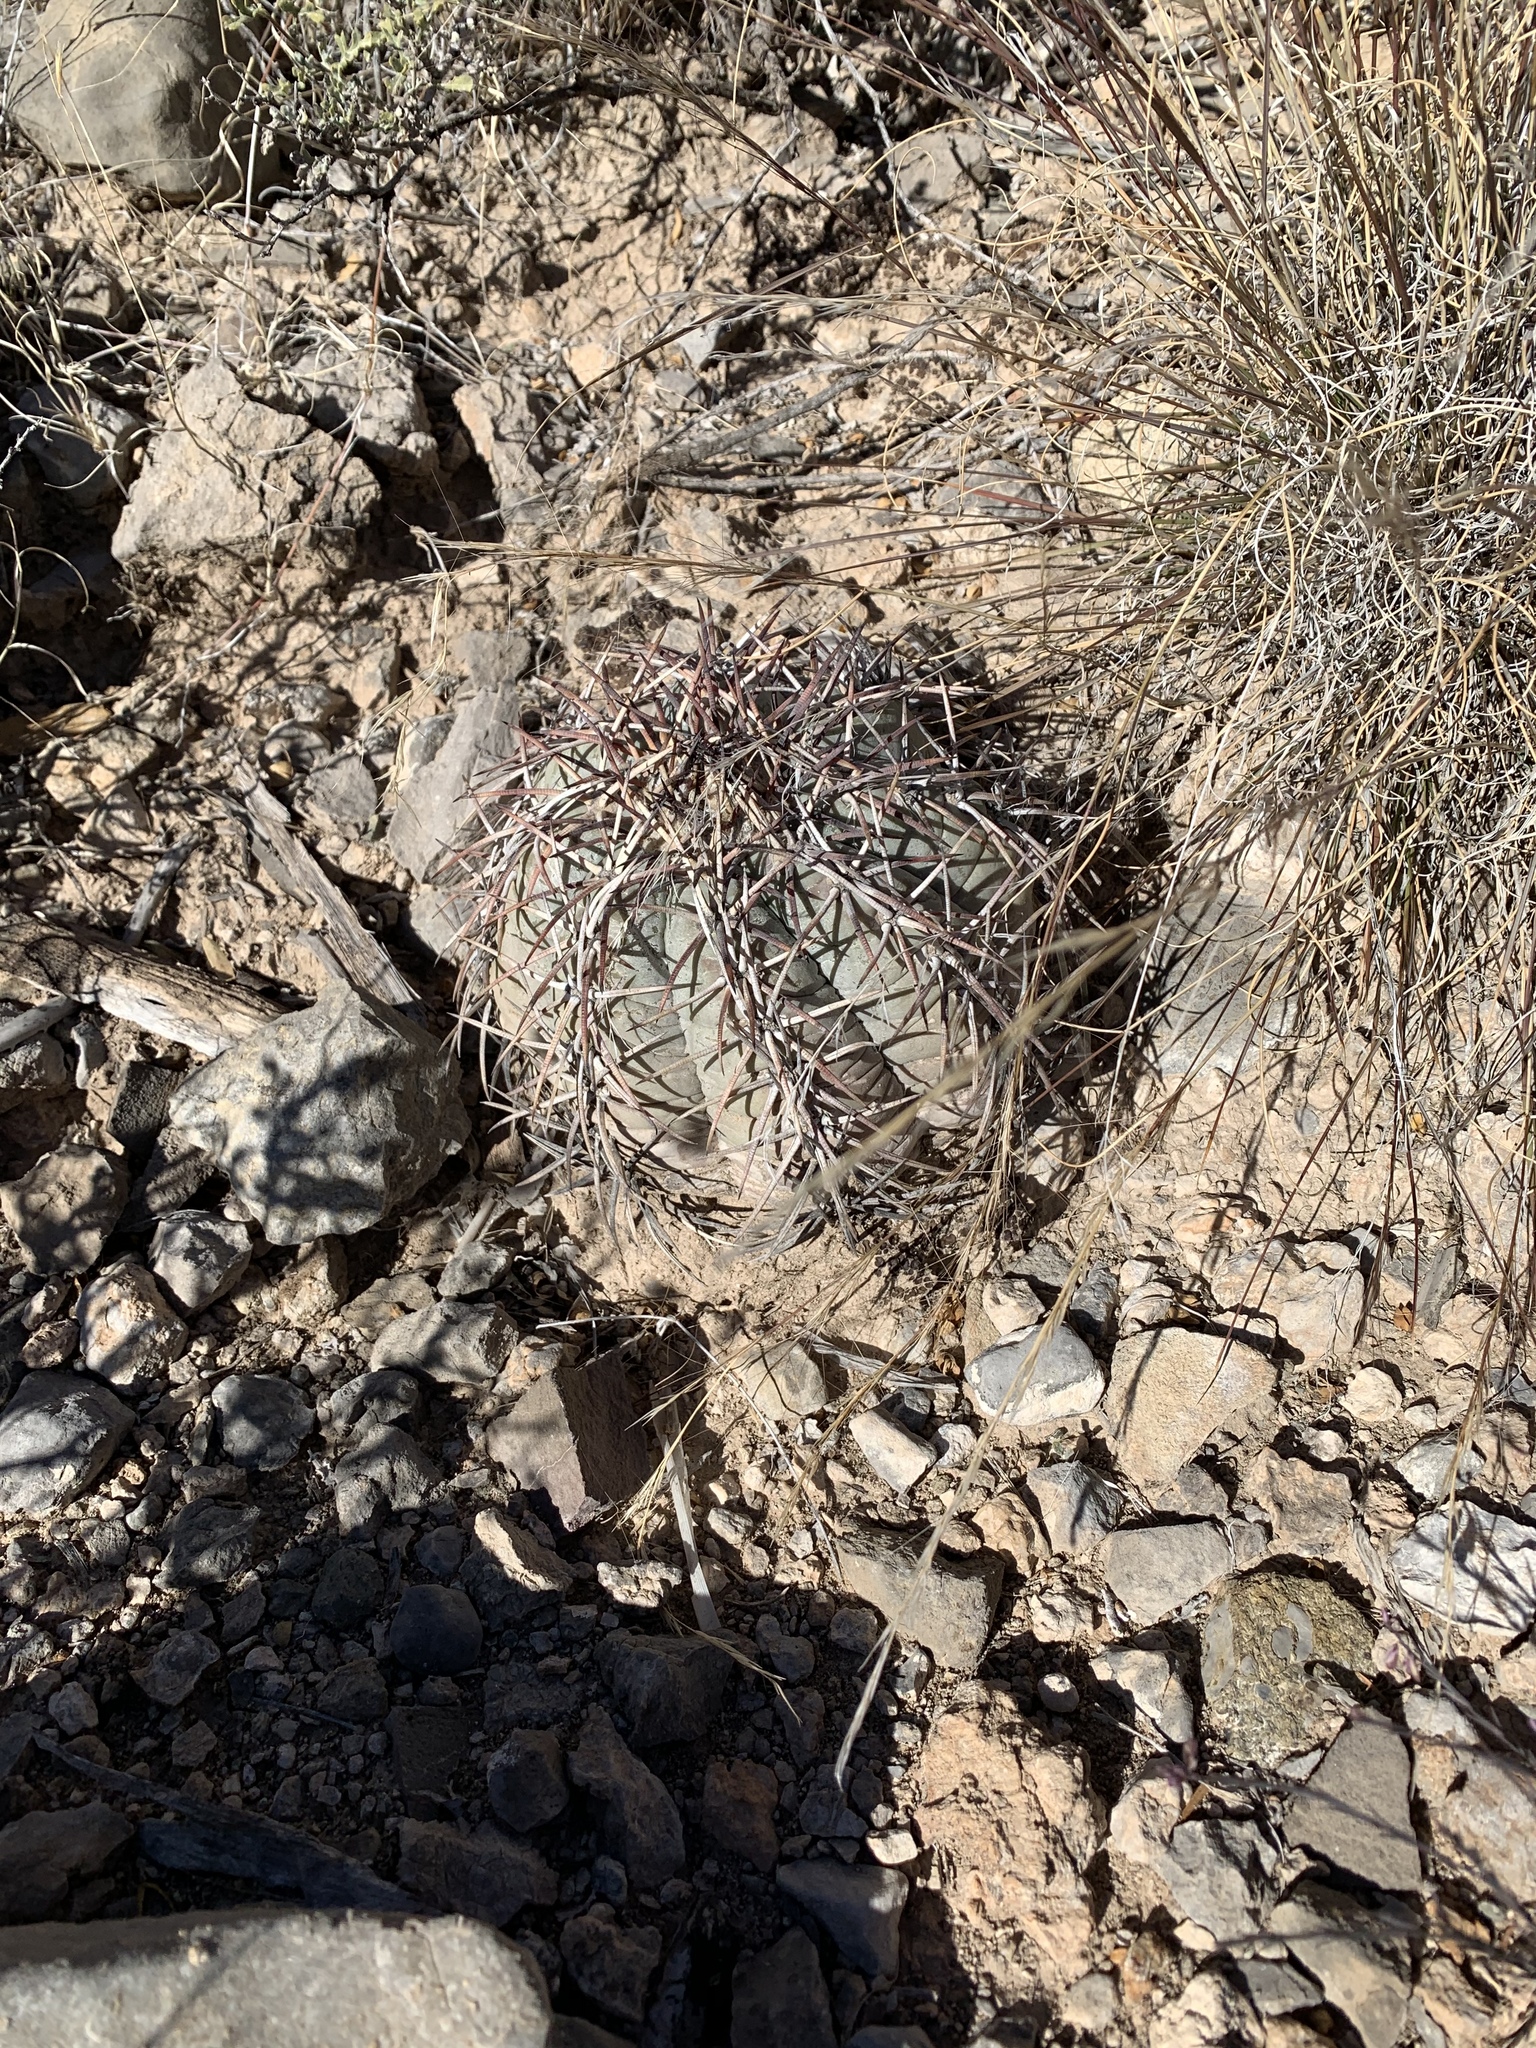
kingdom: Plantae
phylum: Tracheophyta
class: Magnoliopsida
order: Caryophyllales
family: Cactaceae
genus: Echinocactus
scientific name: Echinocactus horizonthalonius
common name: Devilshead
